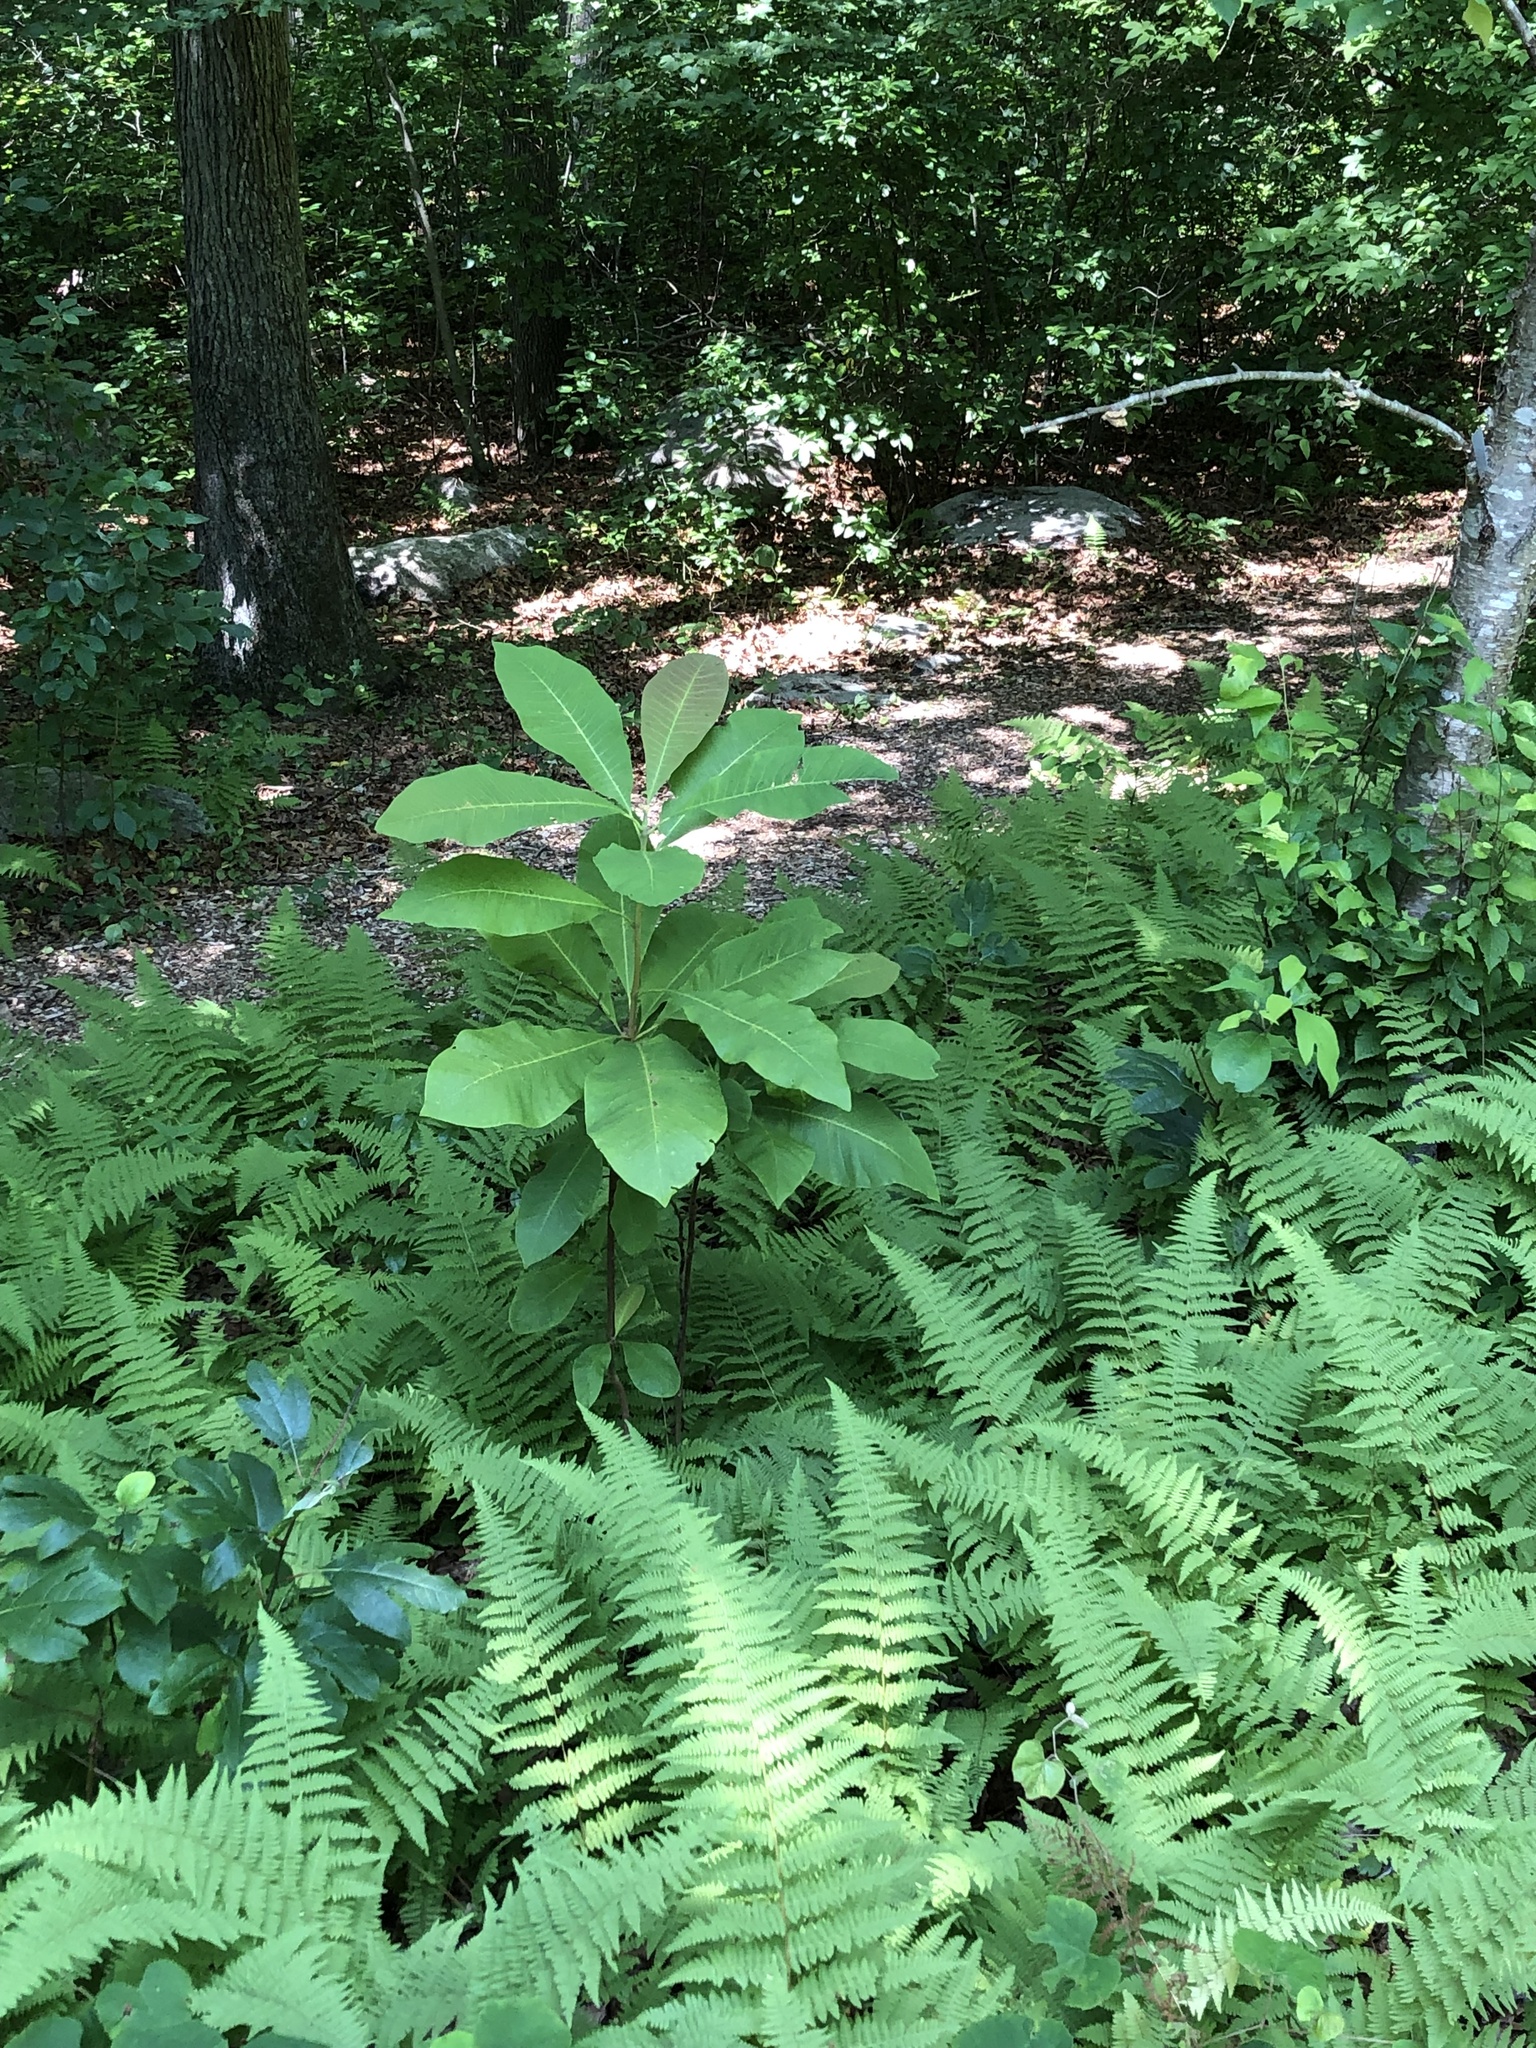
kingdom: Plantae
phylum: Tracheophyta
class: Magnoliopsida
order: Magnoliales
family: Magnoliaceae
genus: Magnolia
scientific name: Magnolia tripetala
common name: Umbrella magnolia
